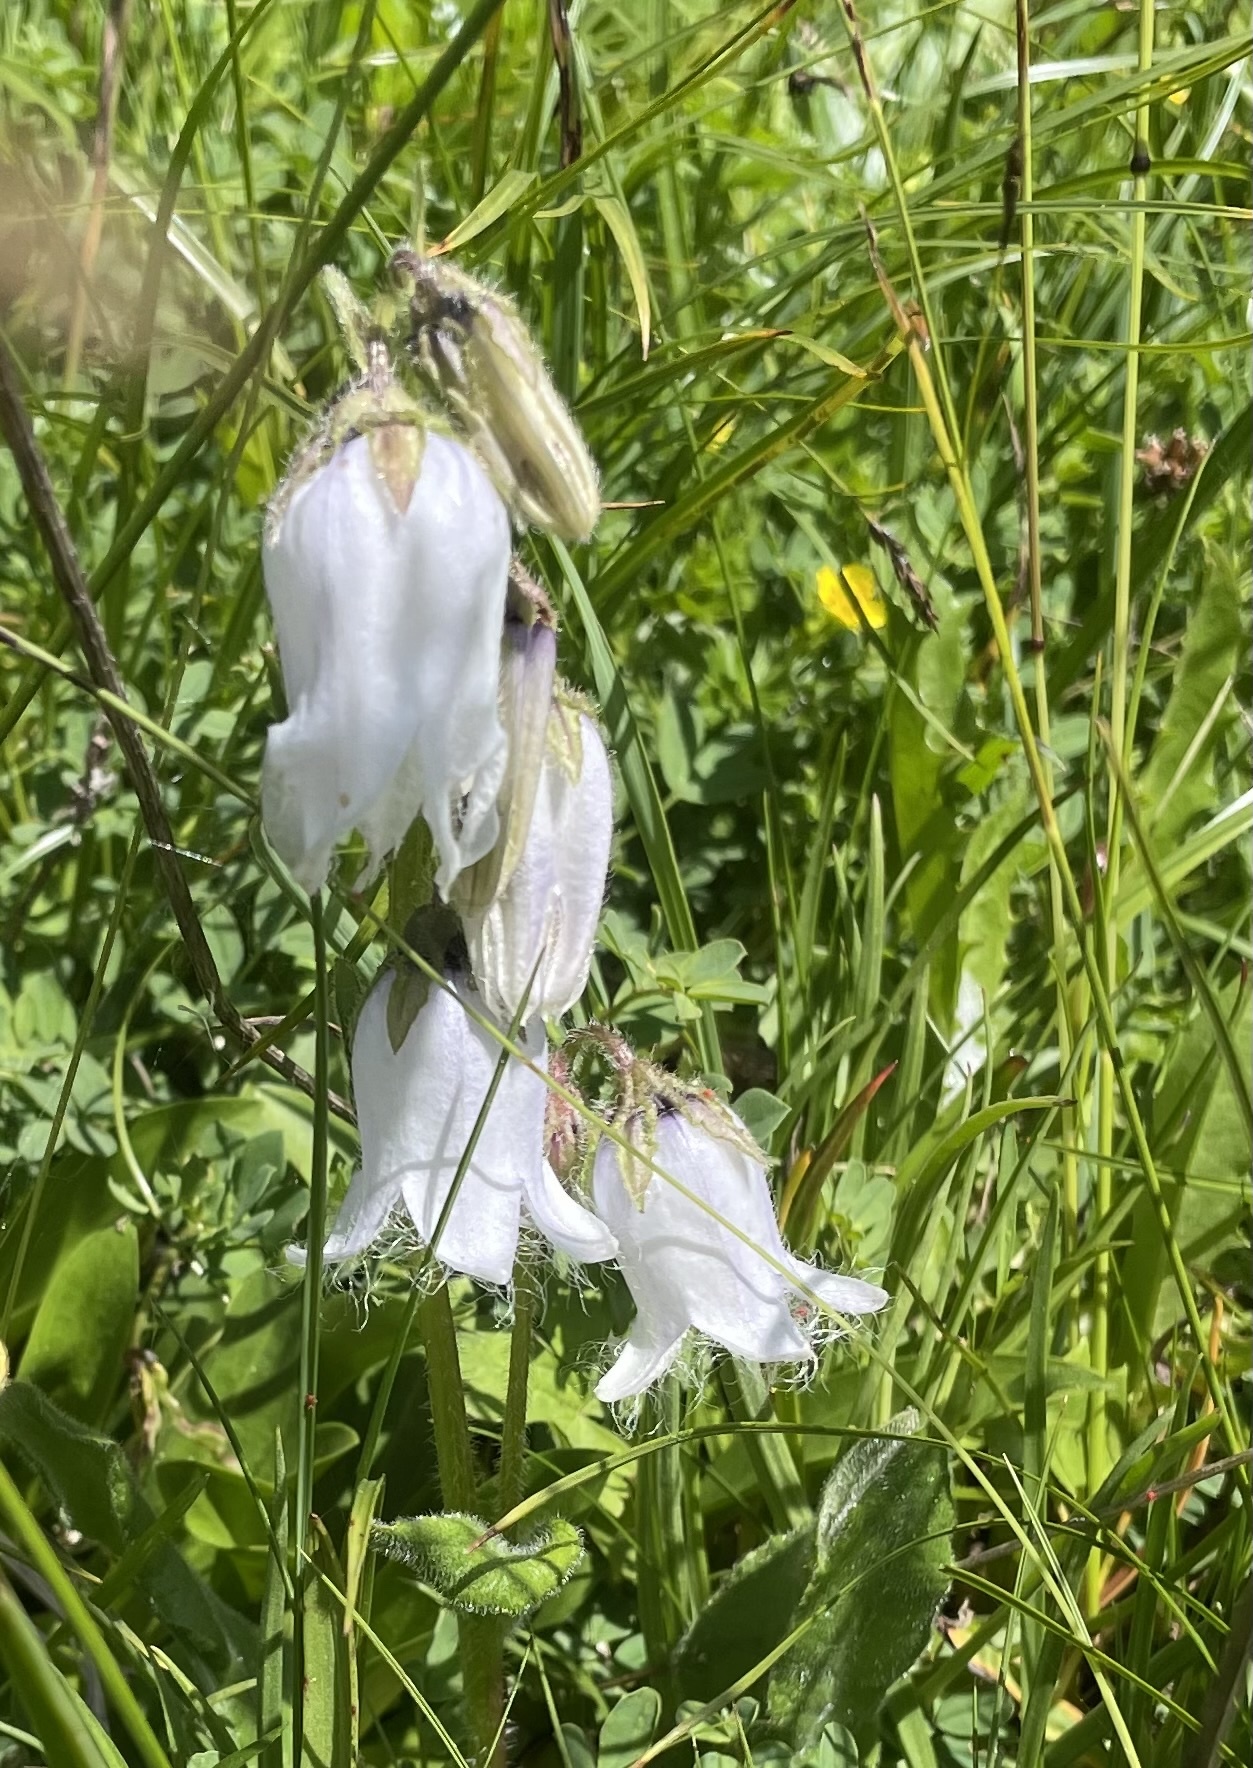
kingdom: Plantae
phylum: Tracheophyta
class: Magnoliopsida
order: Asterales
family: Campanulaceae
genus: Campanula
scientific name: Campanula barbata
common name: Bearded bellflower
